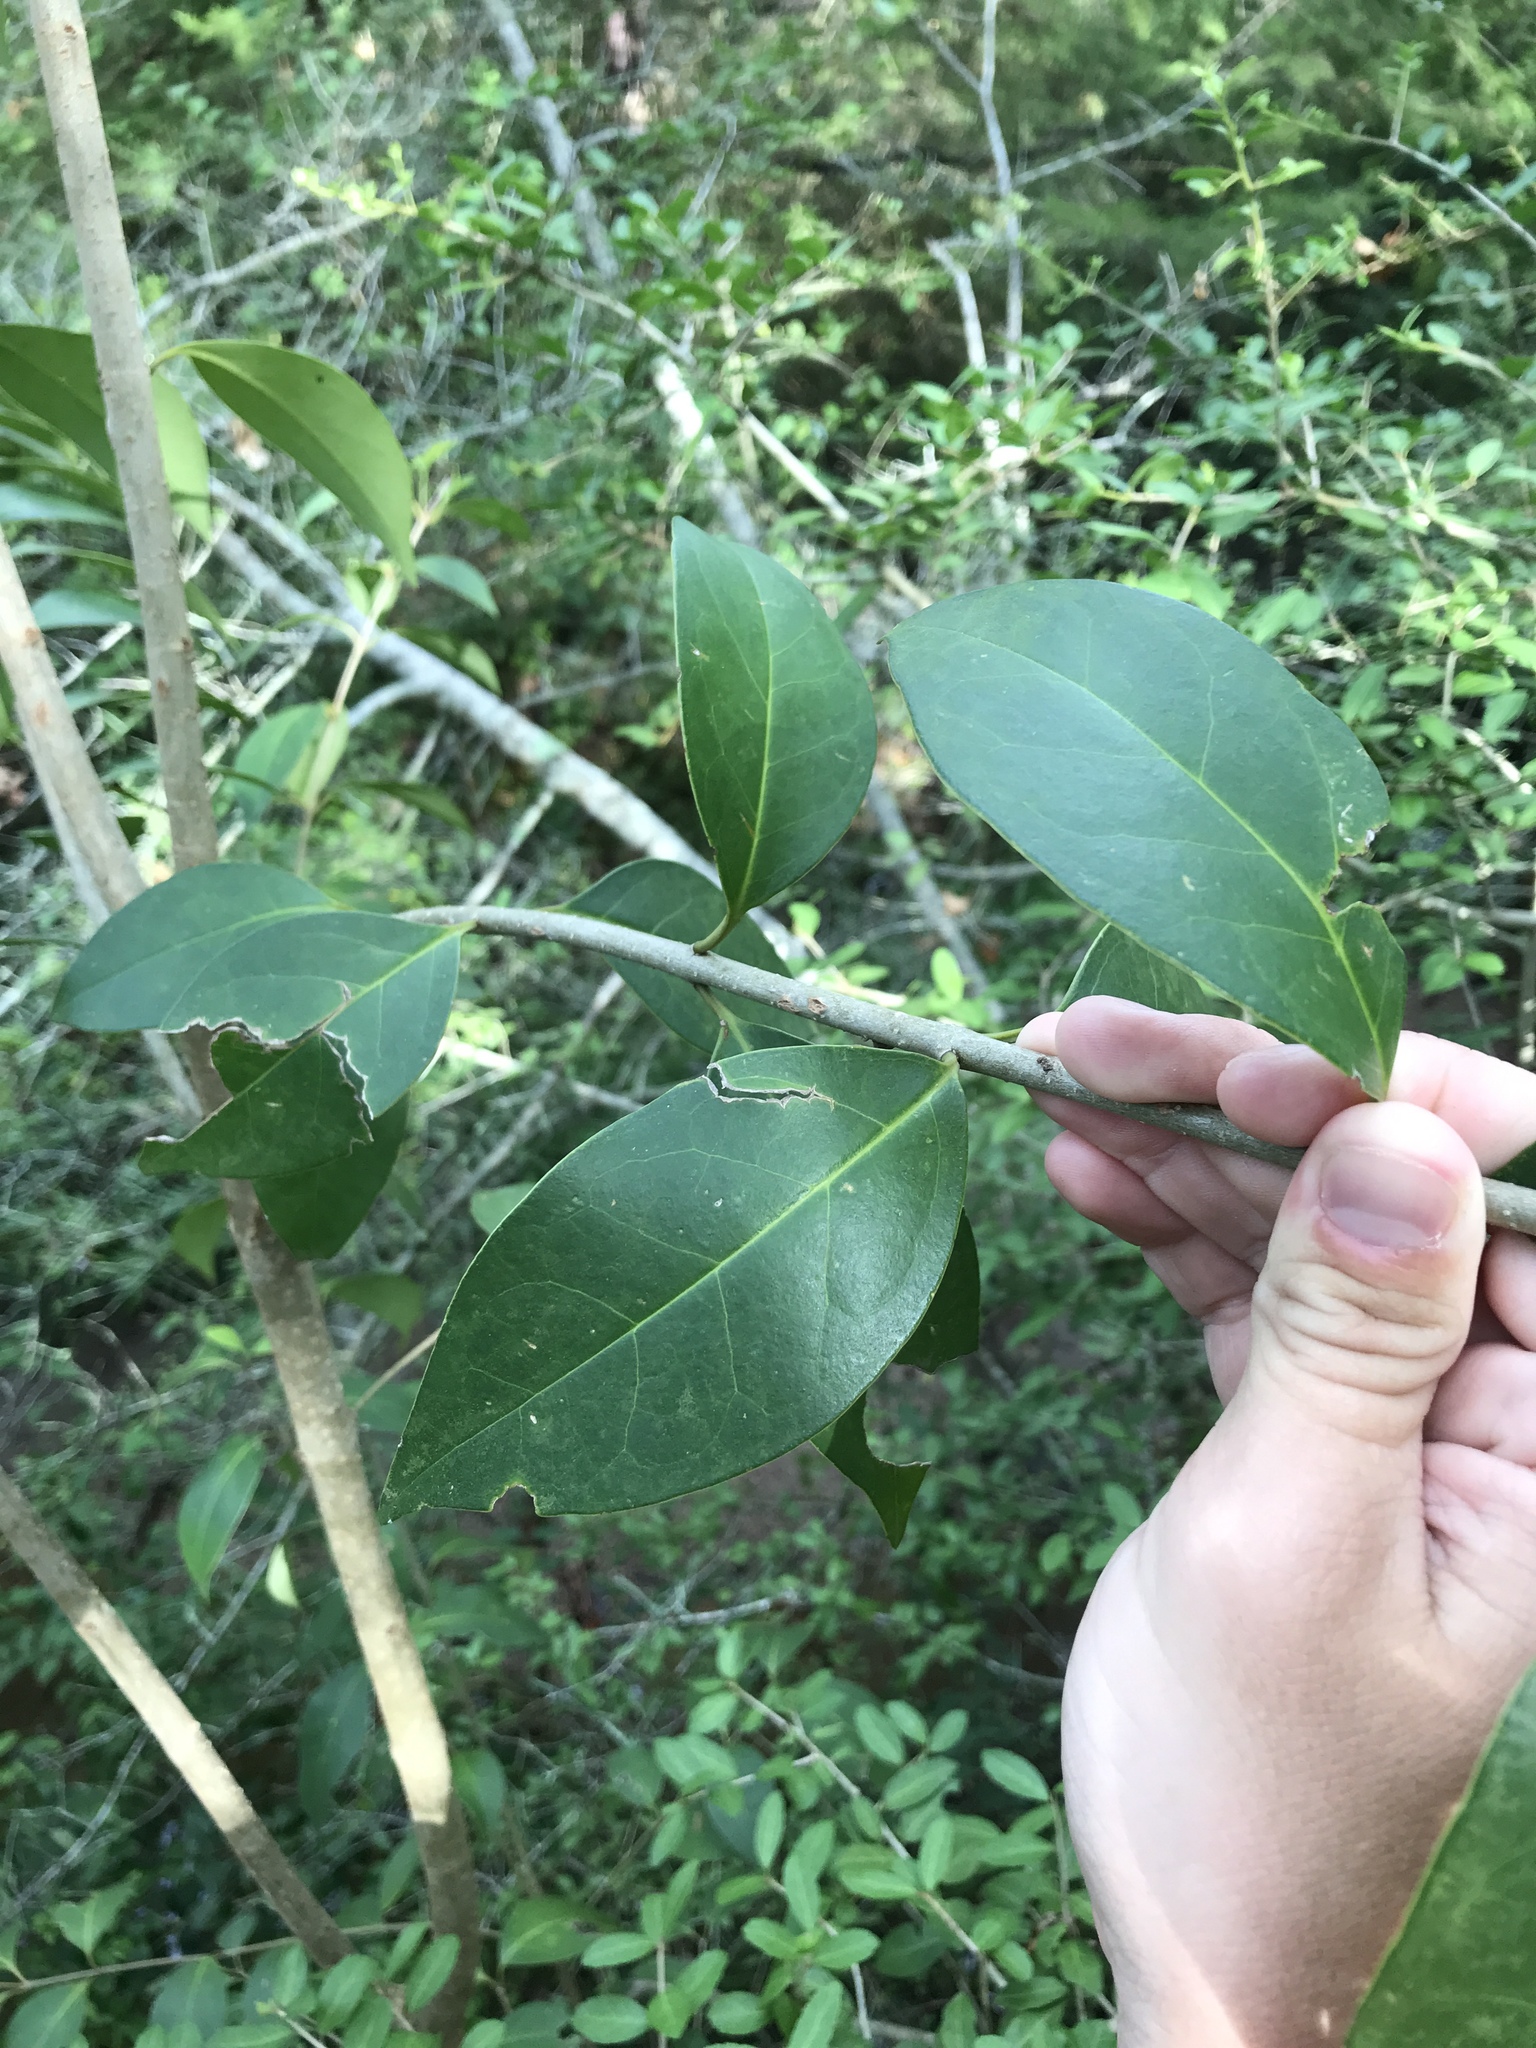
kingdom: Plantae
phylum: Tracheophyta
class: Magnoliopsida
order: Lamiales
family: Oleaceae
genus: Ligustrum
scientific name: Ligustrum lucidum
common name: Glossy privet
